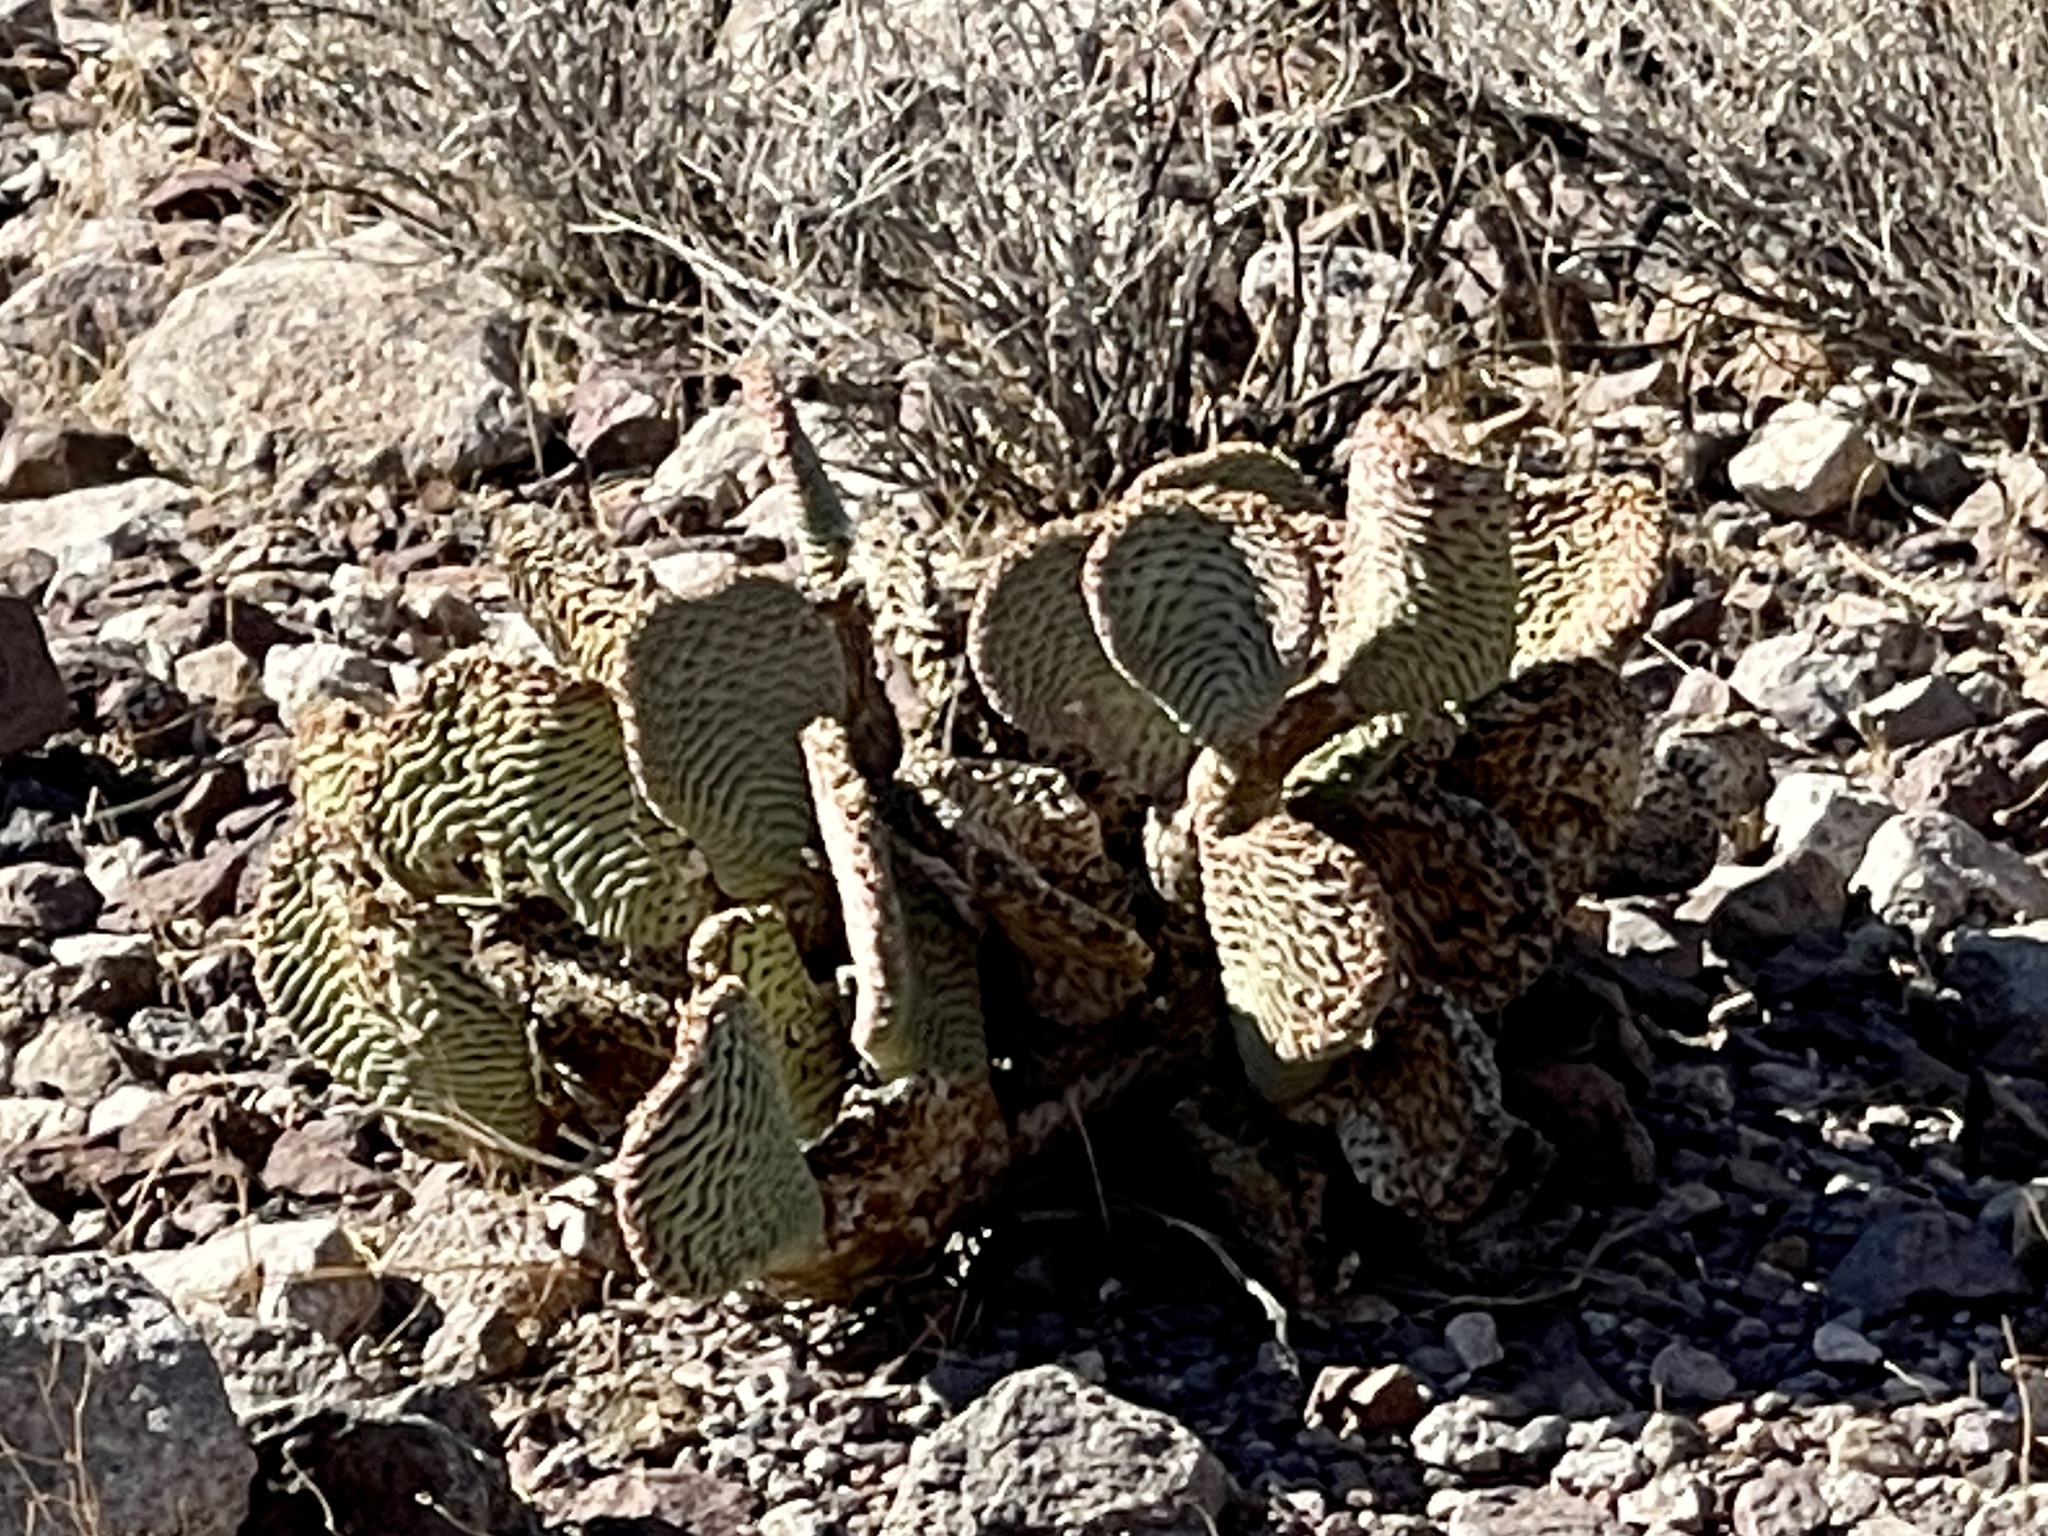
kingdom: Plantae
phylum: Tracheophyta
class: Magnoliopsida
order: Caryophyllales
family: Cactaceae
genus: Opuntia
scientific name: Opuntia basilaris
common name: Beavertail prickly-pear
